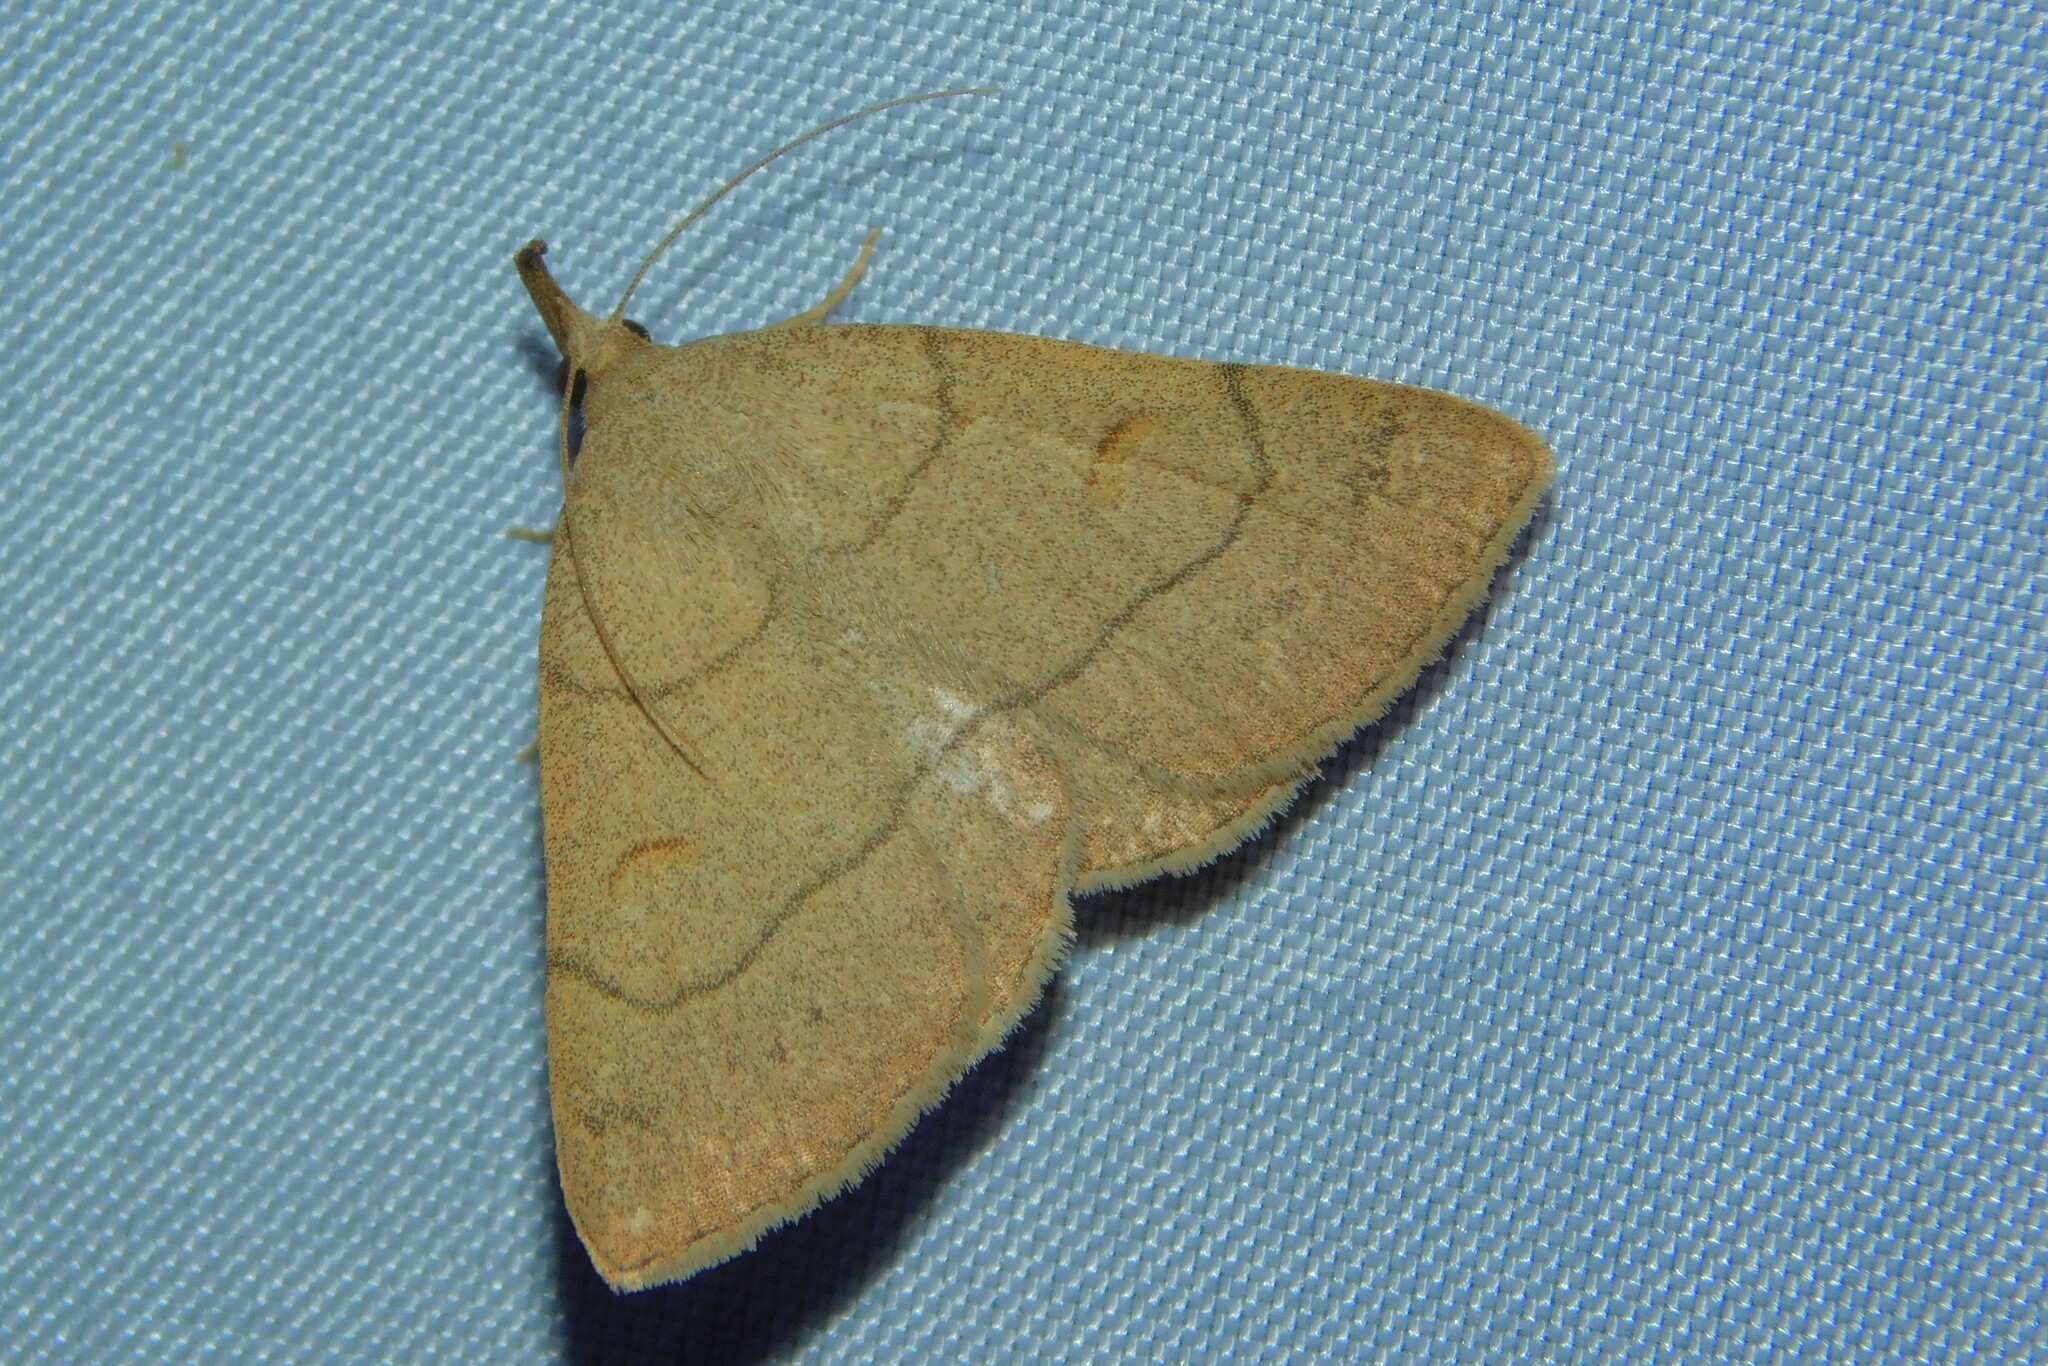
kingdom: Animalia
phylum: Arthropoda
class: Insecta
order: Lepidoptera
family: Erebidae
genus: Paracolax
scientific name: Paracolax tristalis
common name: Clay fan-foot
